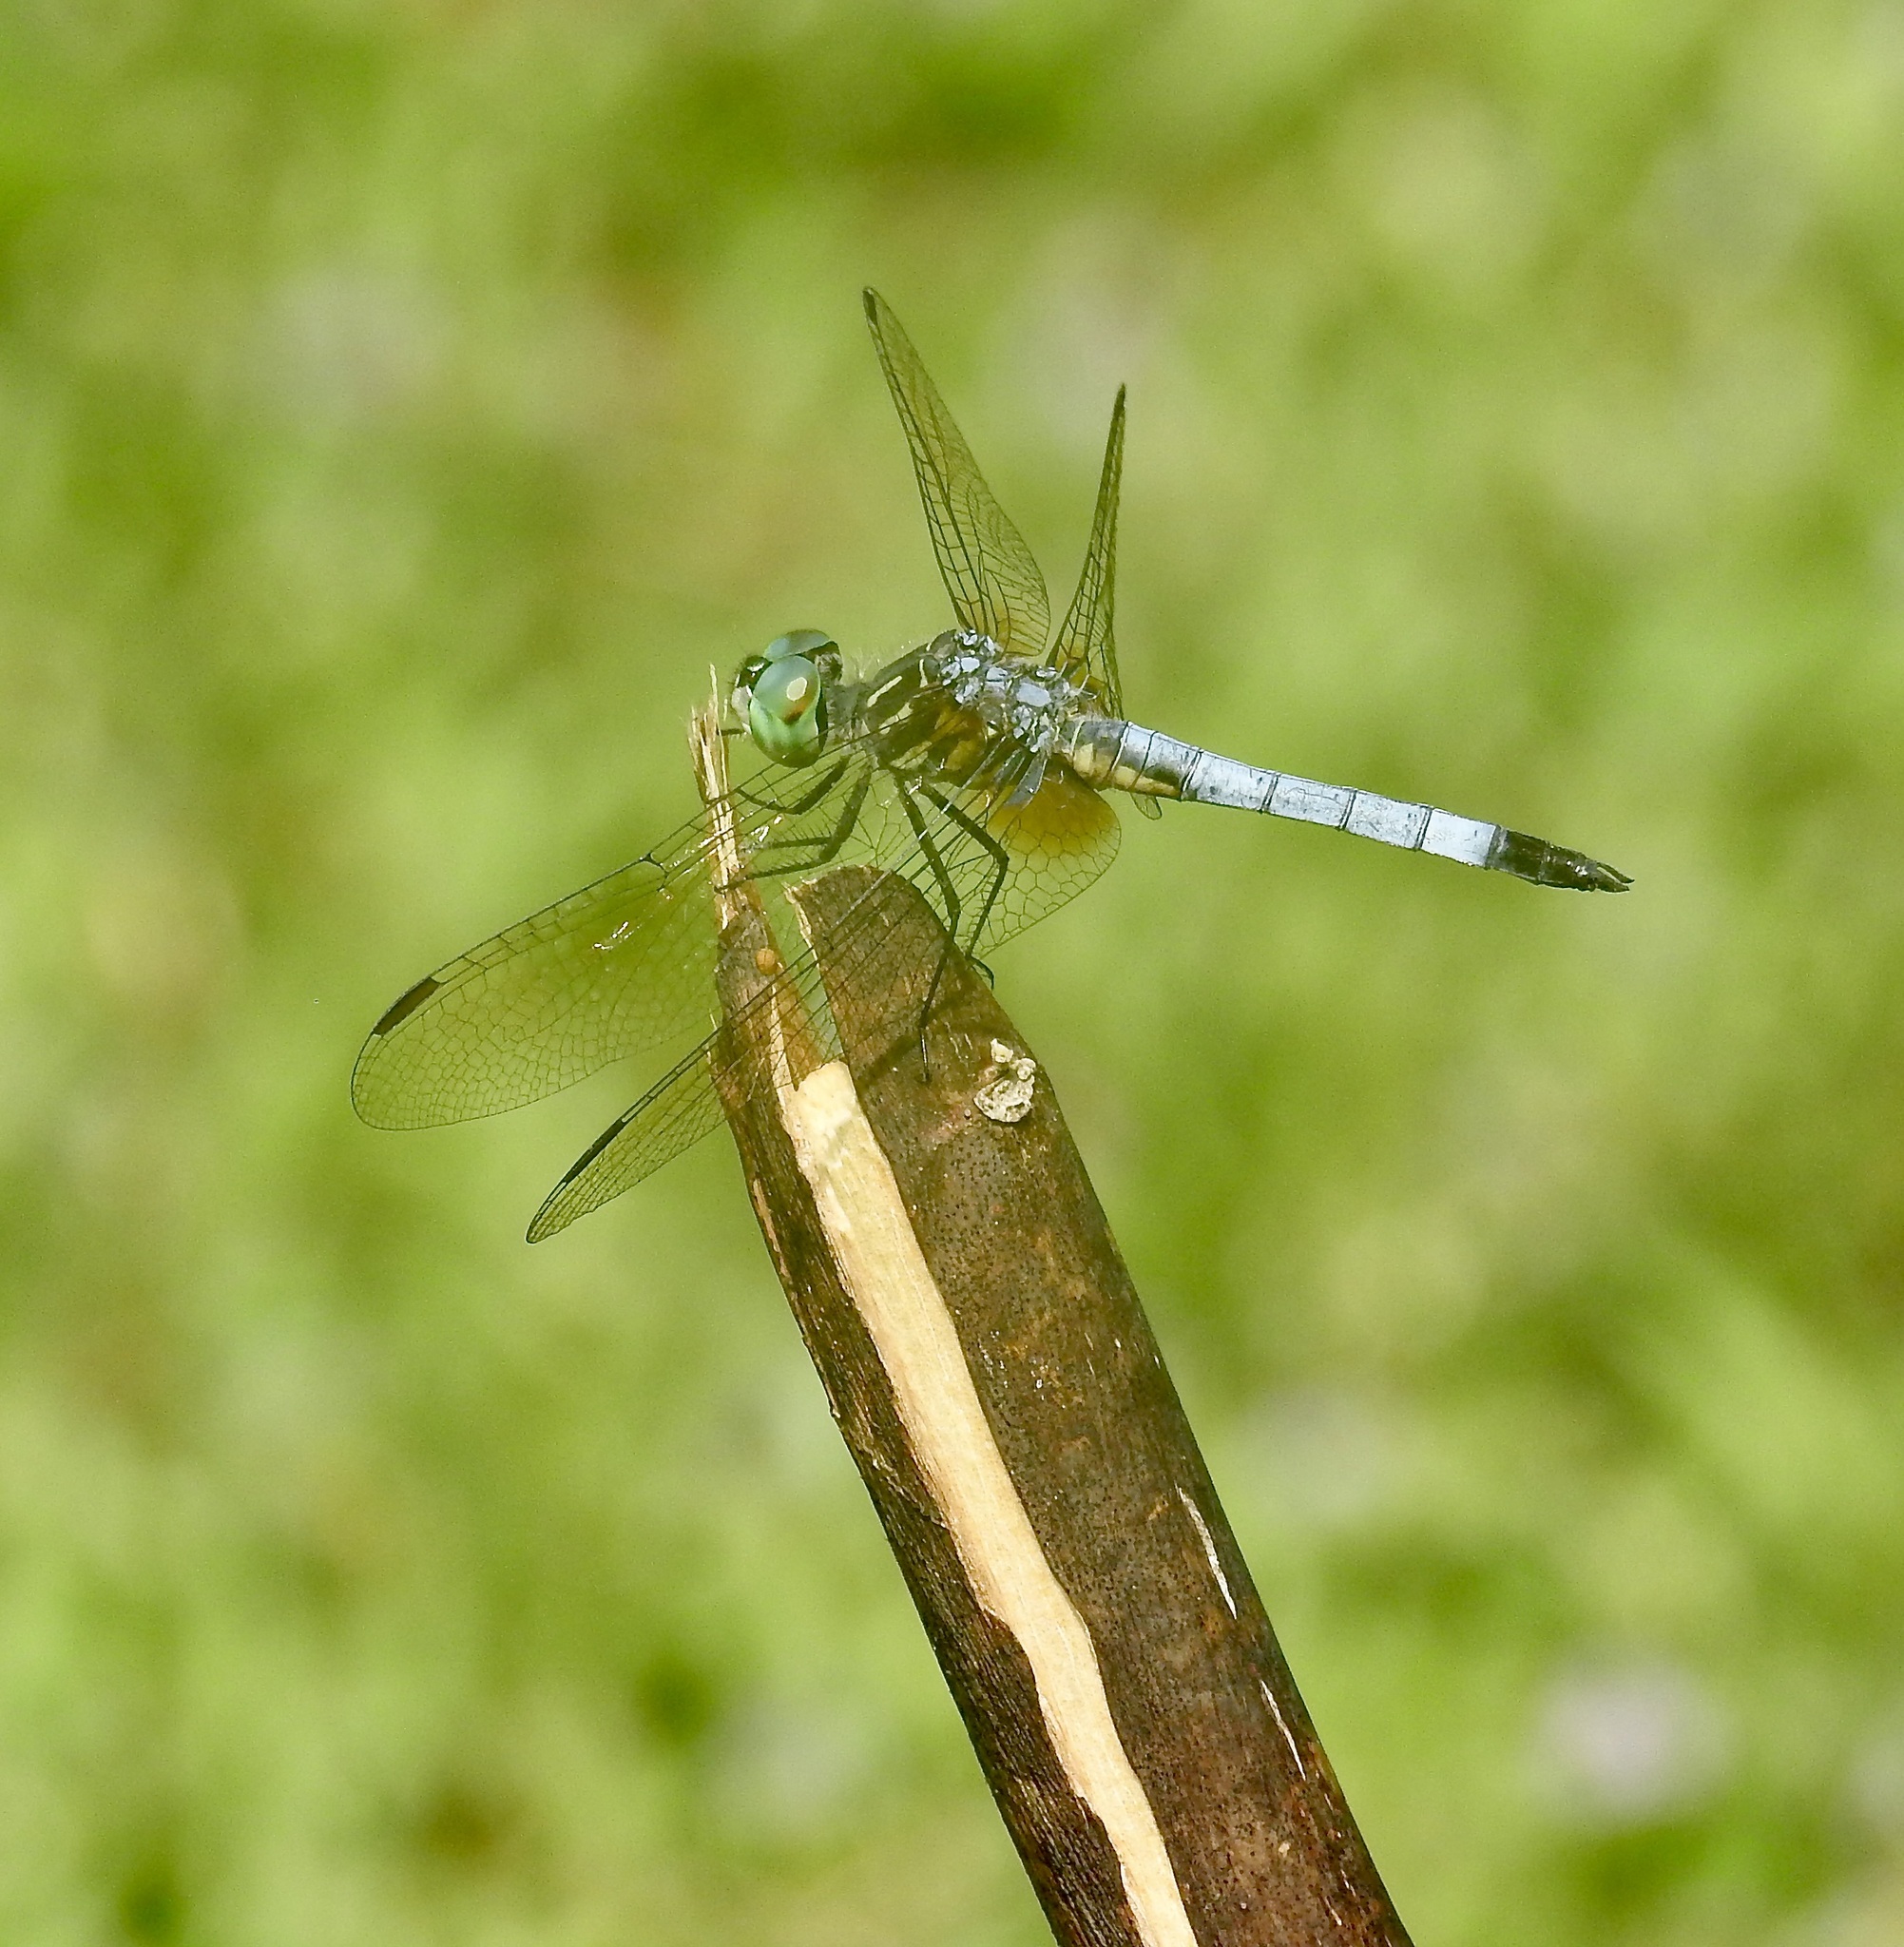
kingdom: Animalia
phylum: Arthropoda
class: Insecta
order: Odonata
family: Libellulidae
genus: Pachydiplax
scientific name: Pachydiplax longipennis
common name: Blue dasher
